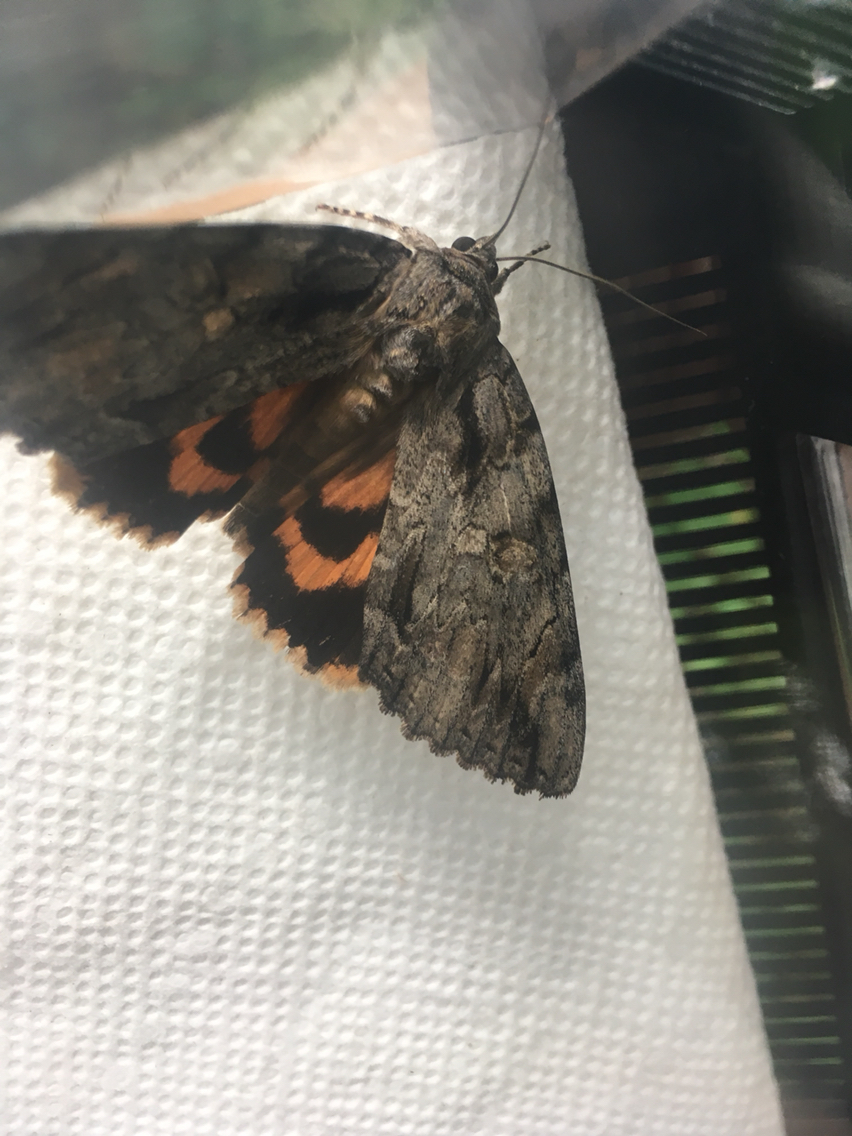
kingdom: Animalia
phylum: Arthropoda
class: Insecta
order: Lepidoptera
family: Erebidae
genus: Catocala
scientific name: Catocala neogama
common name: Bride underwing
